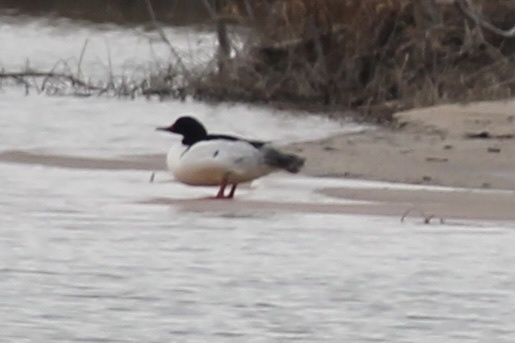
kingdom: Animalia
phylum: Chordata
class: Aves
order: Anseriformes
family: Anatidae
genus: Mergus
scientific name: Mergus merganser
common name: Common merganser
